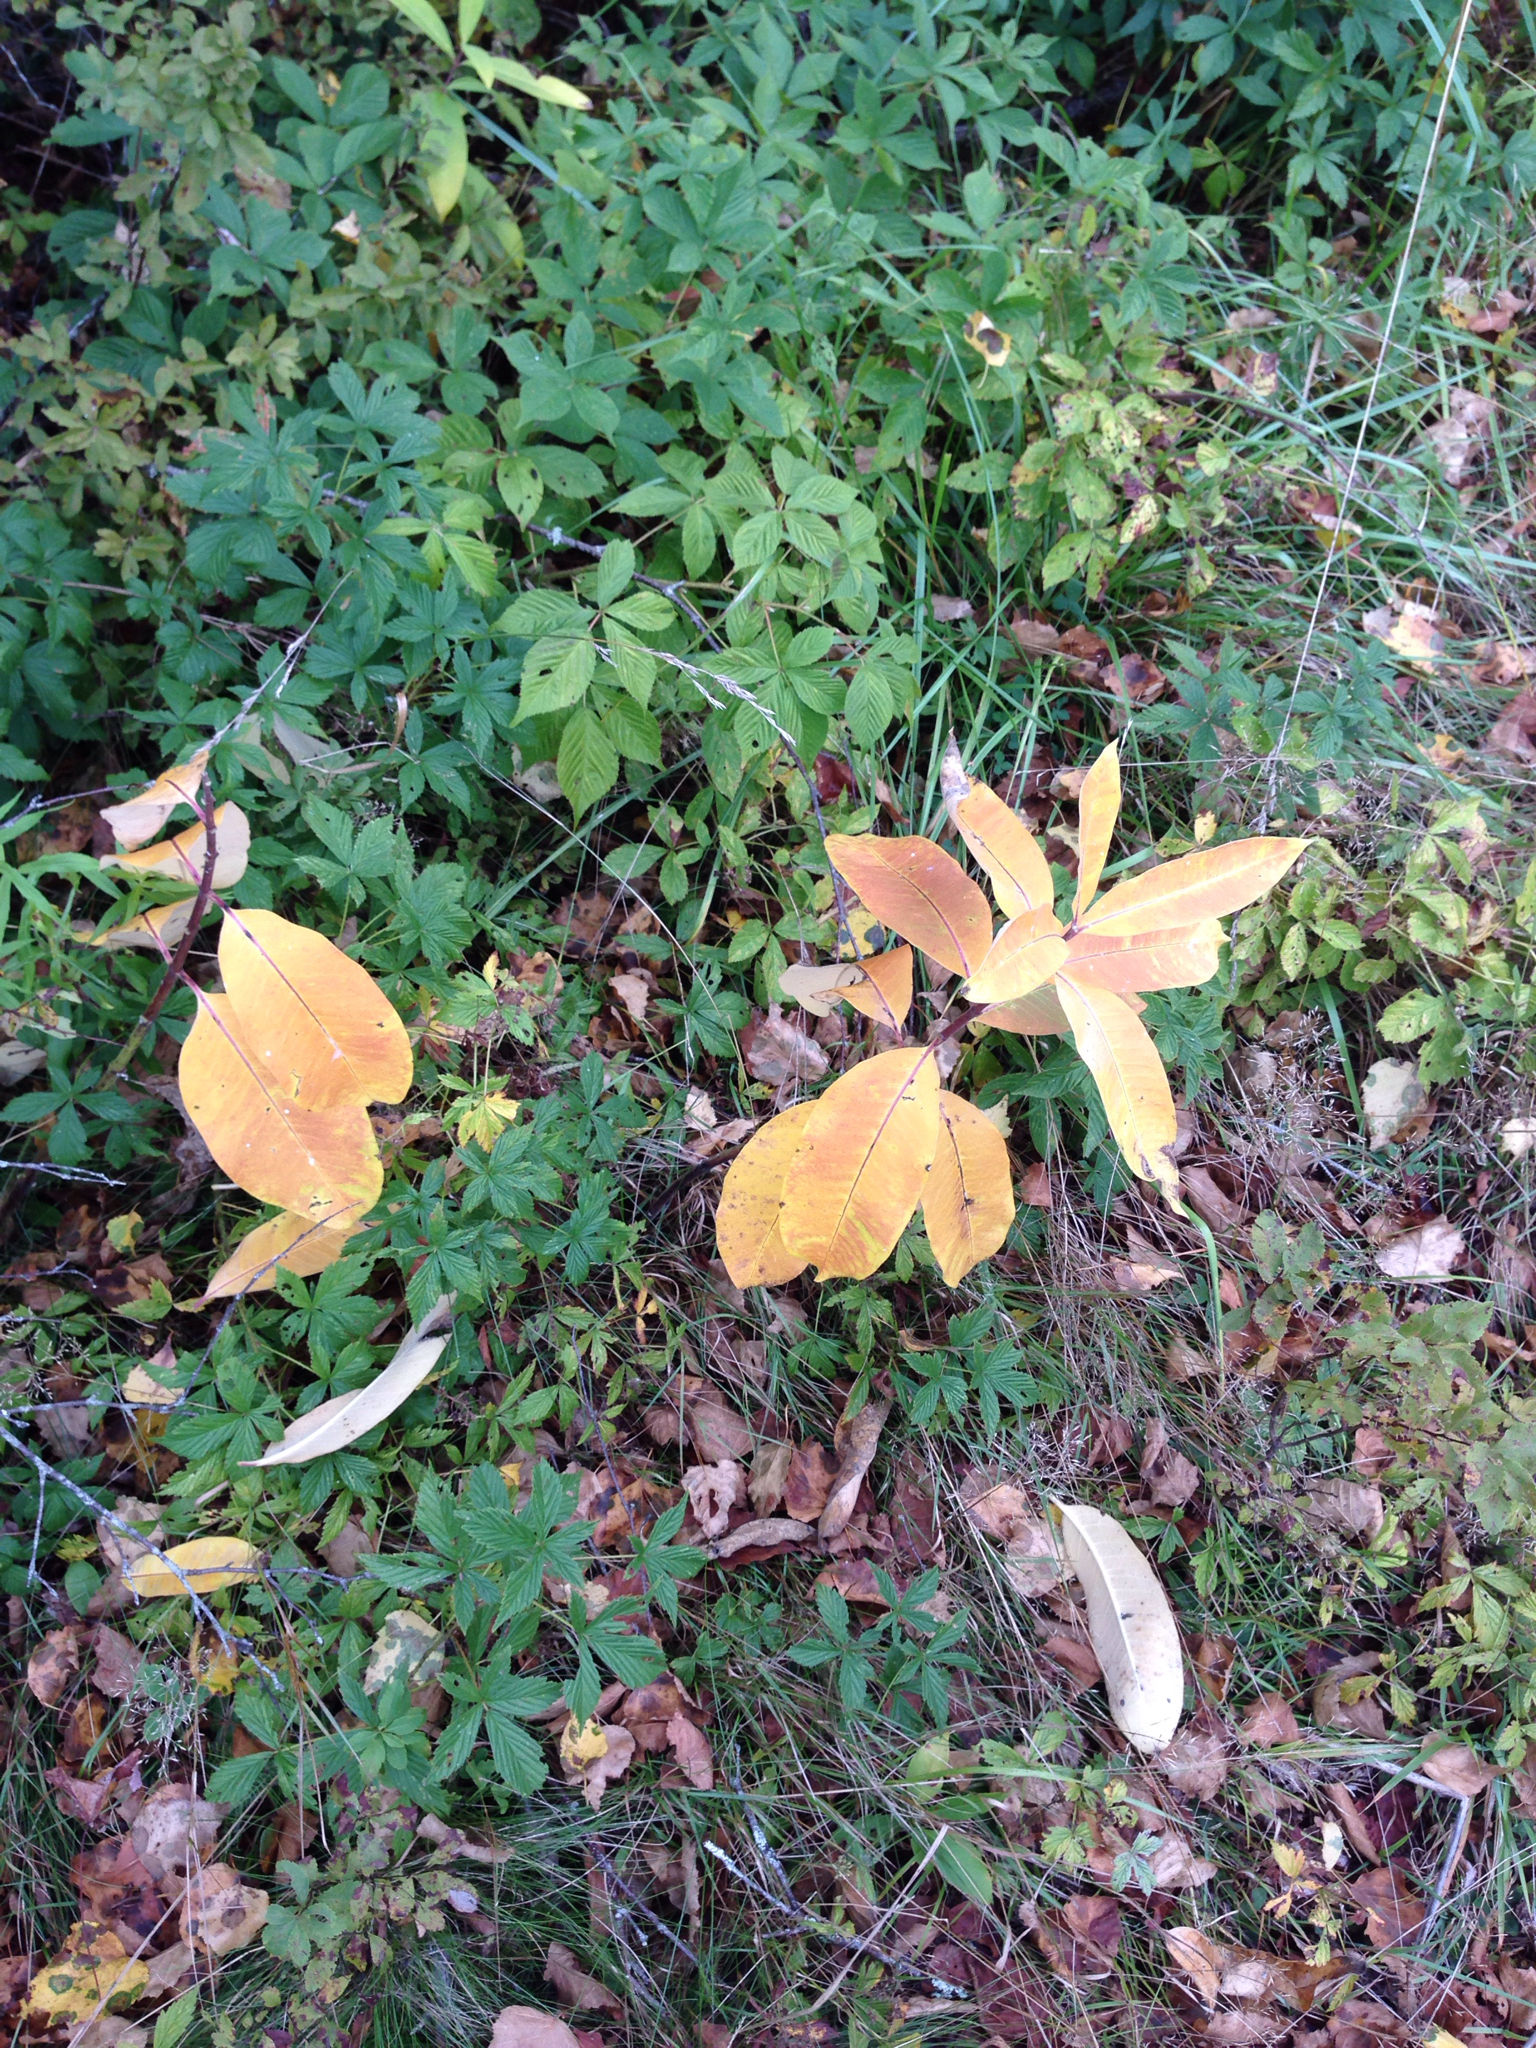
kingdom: Plantae
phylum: Tracheophyta
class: Magnoliopsida
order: Gentianales
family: Apocynaceae
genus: Asclepias
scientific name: Asclepias syriaca
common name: Common milkweed
